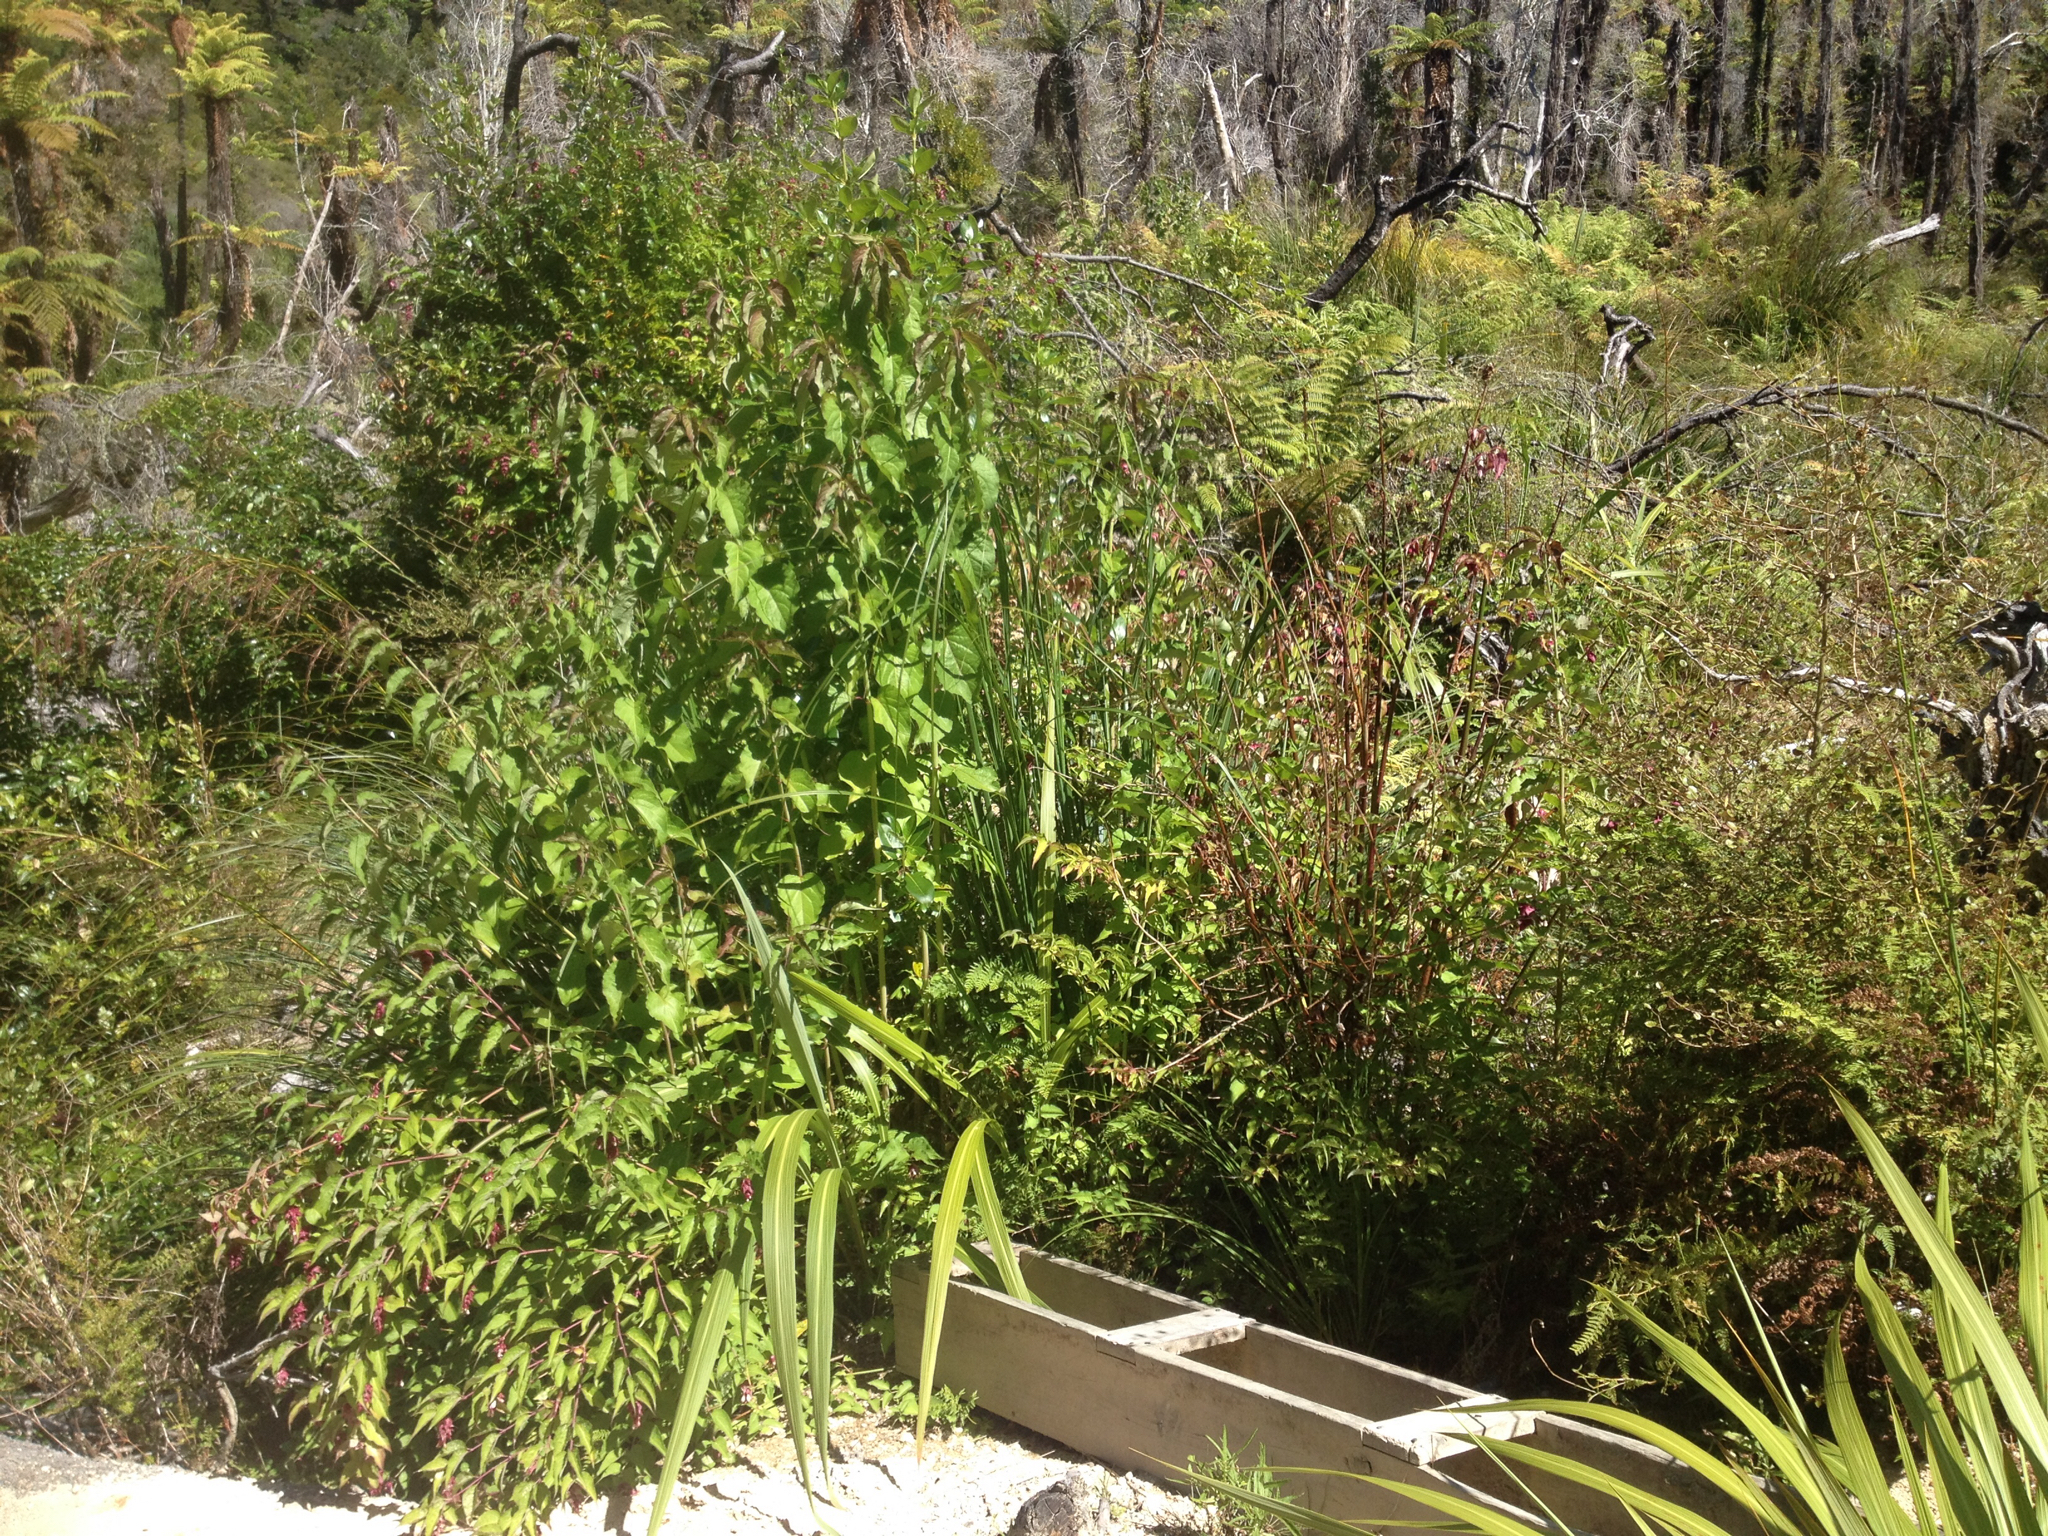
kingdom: Plantae
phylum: Tracheophyta
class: Magnoliopsida
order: Dipsacales
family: Caprifoliaceae
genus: Leycesteria
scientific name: Leycesteria formosa
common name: Himalayan honeysuckle
